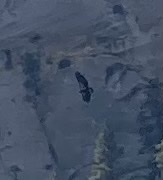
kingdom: Animalia
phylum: Chordata
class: Aves
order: Accipitriformes
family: Cathartidae
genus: Gymnogyps
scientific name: Gymnogyps californianus
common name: California condor
